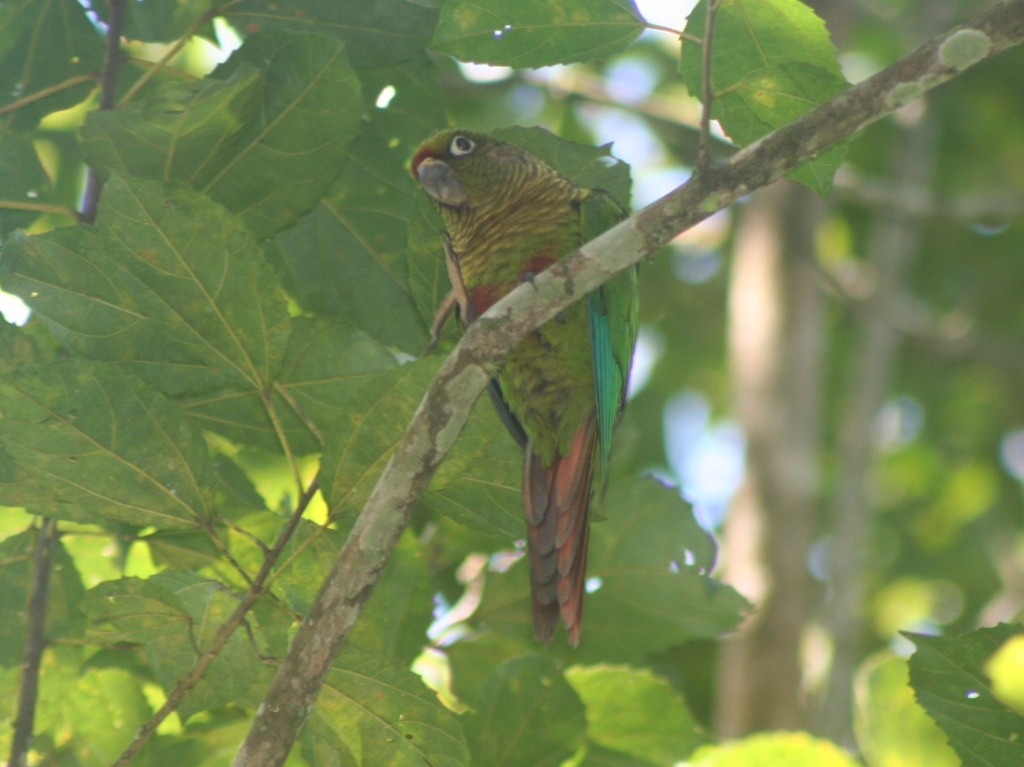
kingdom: Animalia
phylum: Chordata
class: Aves
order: Psittaciformes
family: Psittacidae
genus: Pyrrhura
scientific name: Pyrrhura frontalis
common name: Maroon-bellied parakeet
